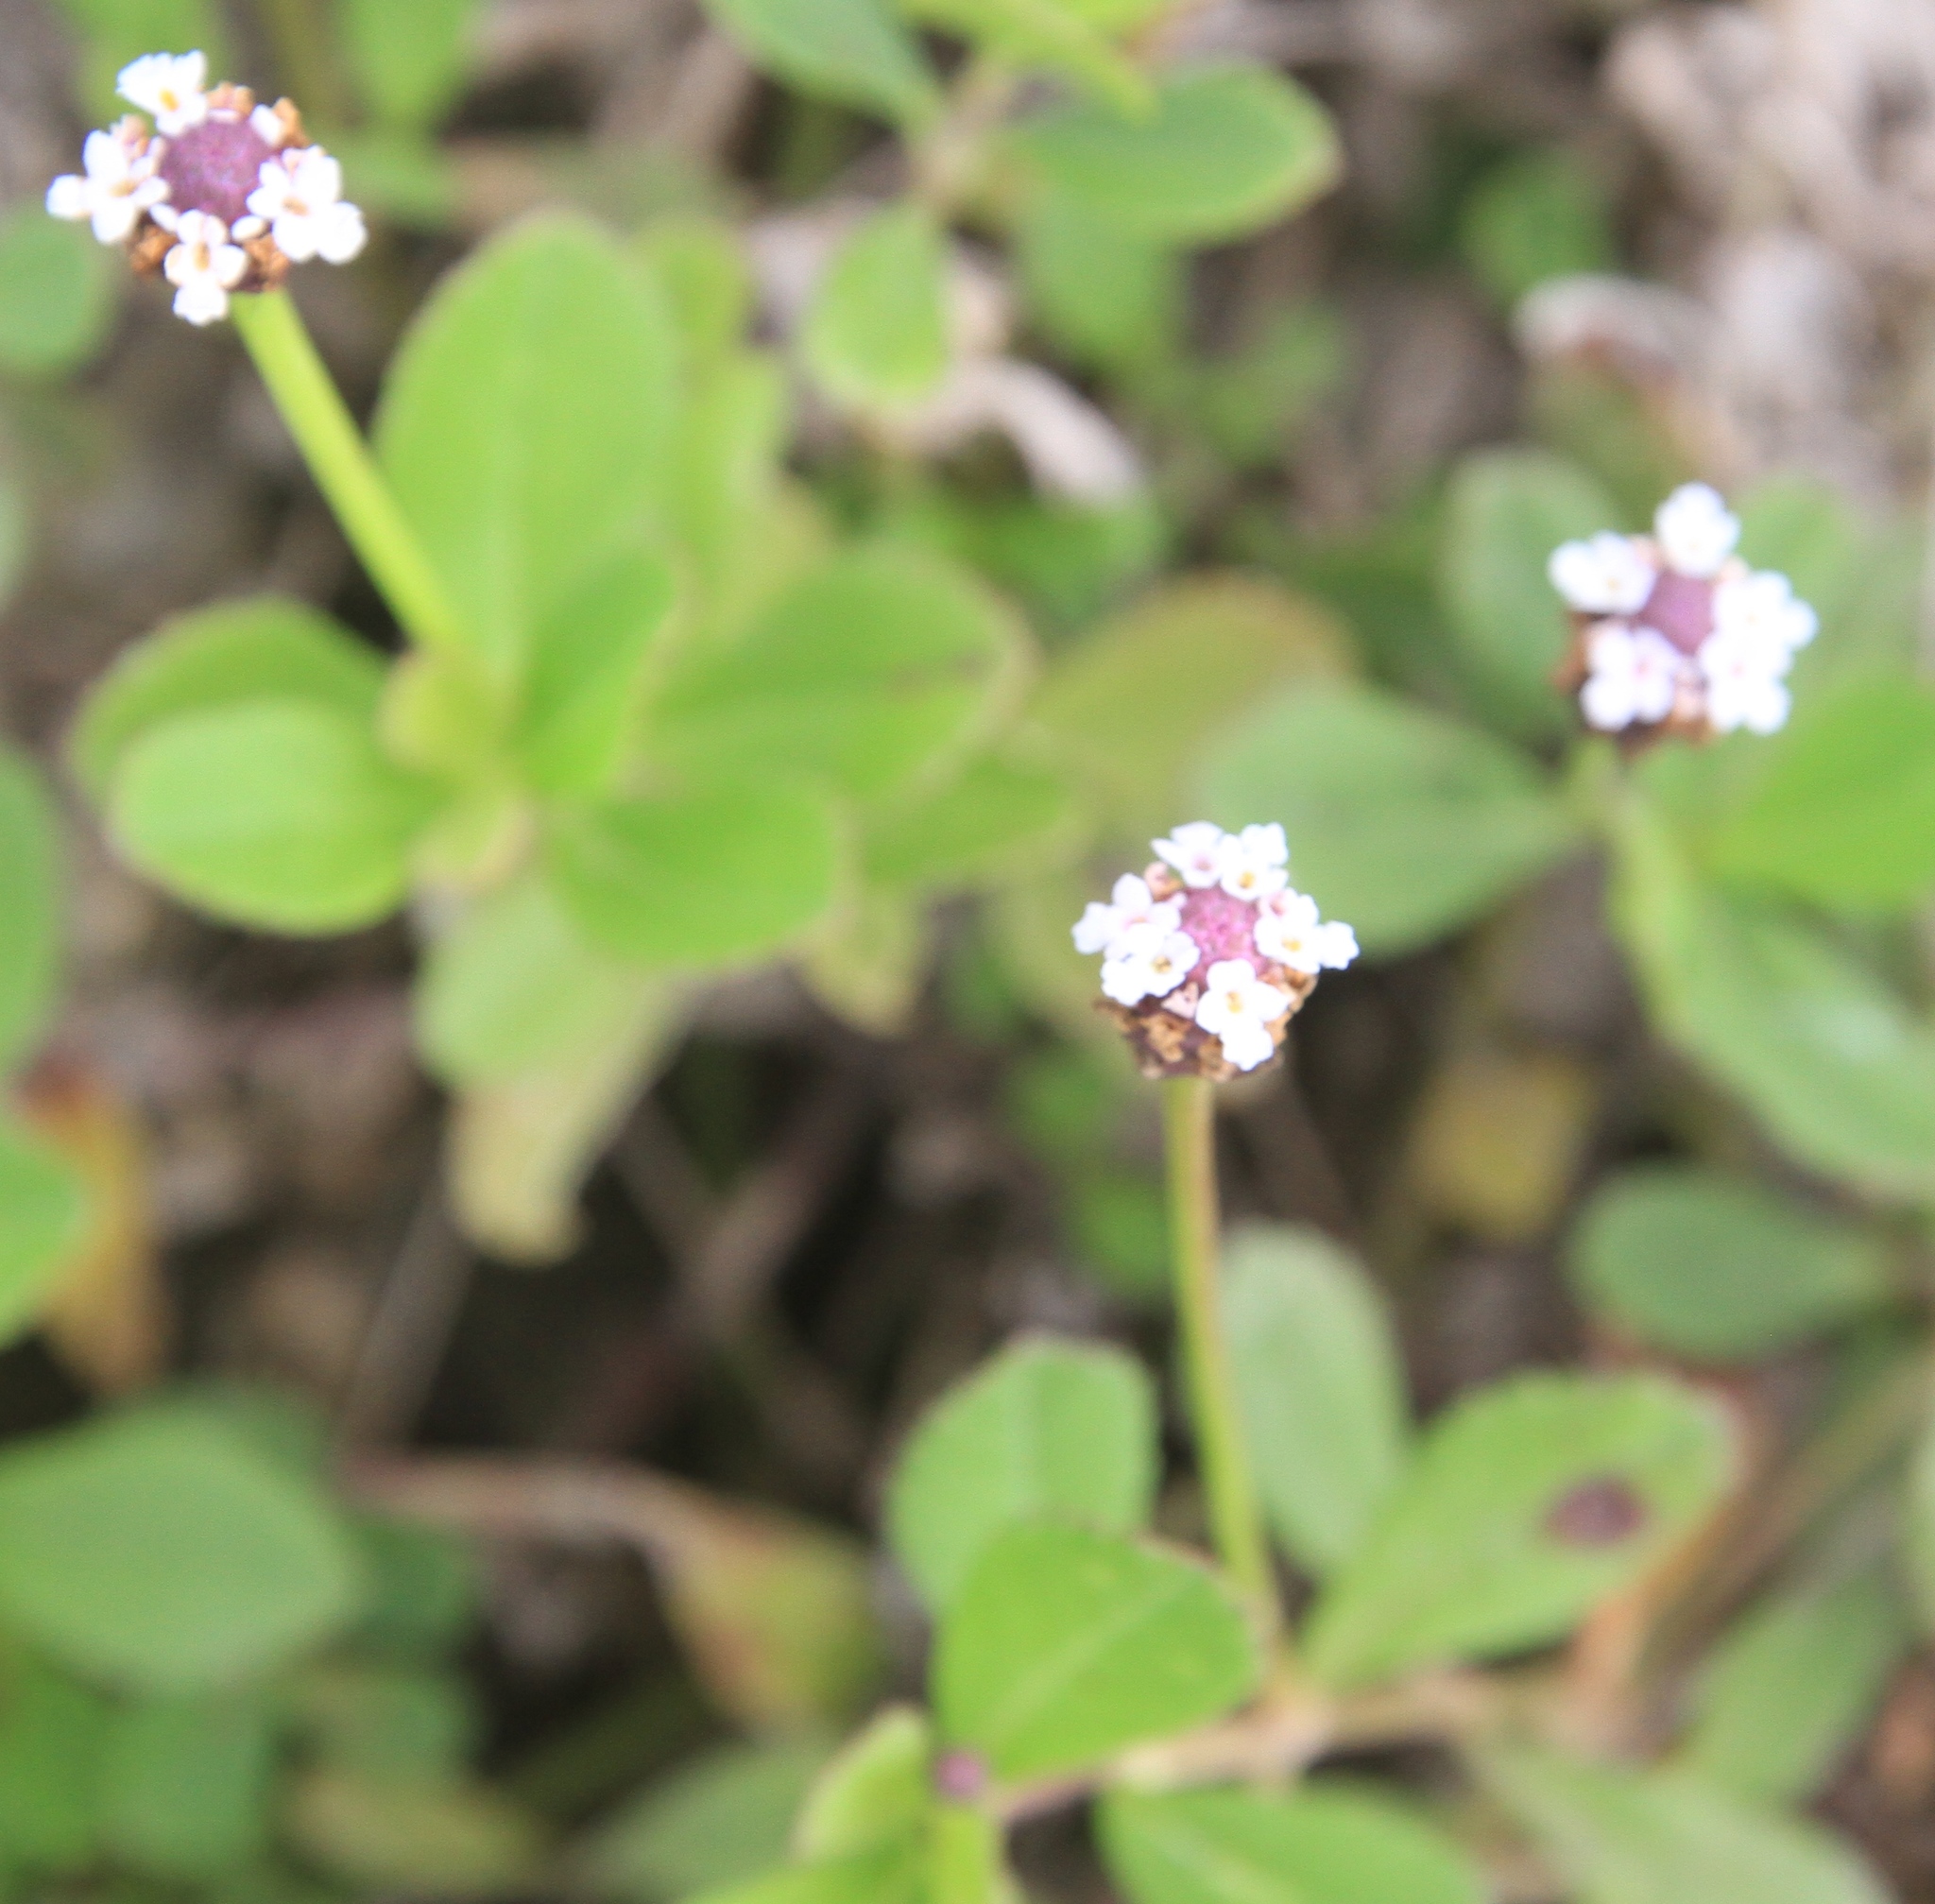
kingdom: Plantae
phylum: Tracheophyta
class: Magnoliopsida
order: Lamiales
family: Verbenaceae
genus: Phyla
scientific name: Phyla nodiflora
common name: Frogfruit
